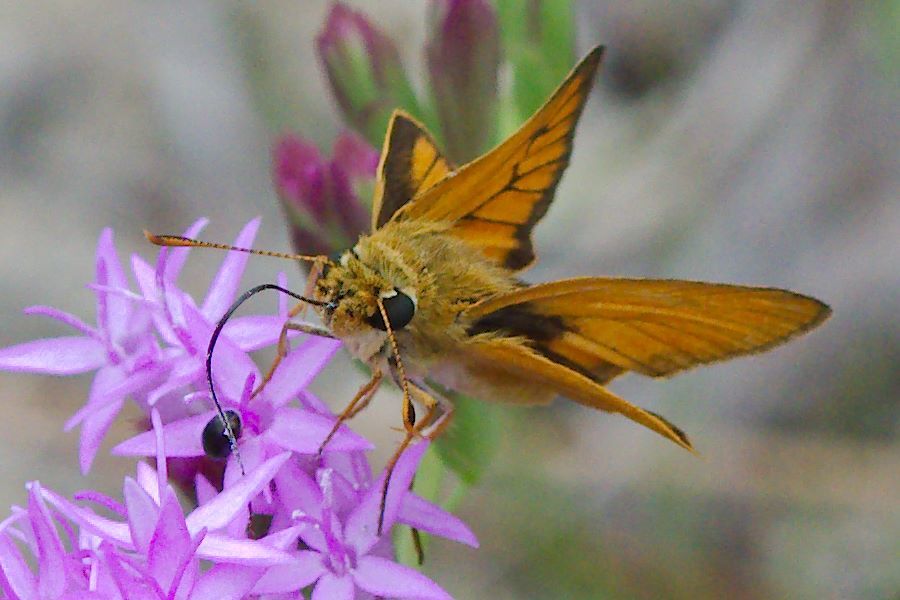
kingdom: Animalia
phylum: Arthropoda
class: Insecta
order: Lepidoptera
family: Hesperiidae
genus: Atrytone
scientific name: Atrytone delaware
